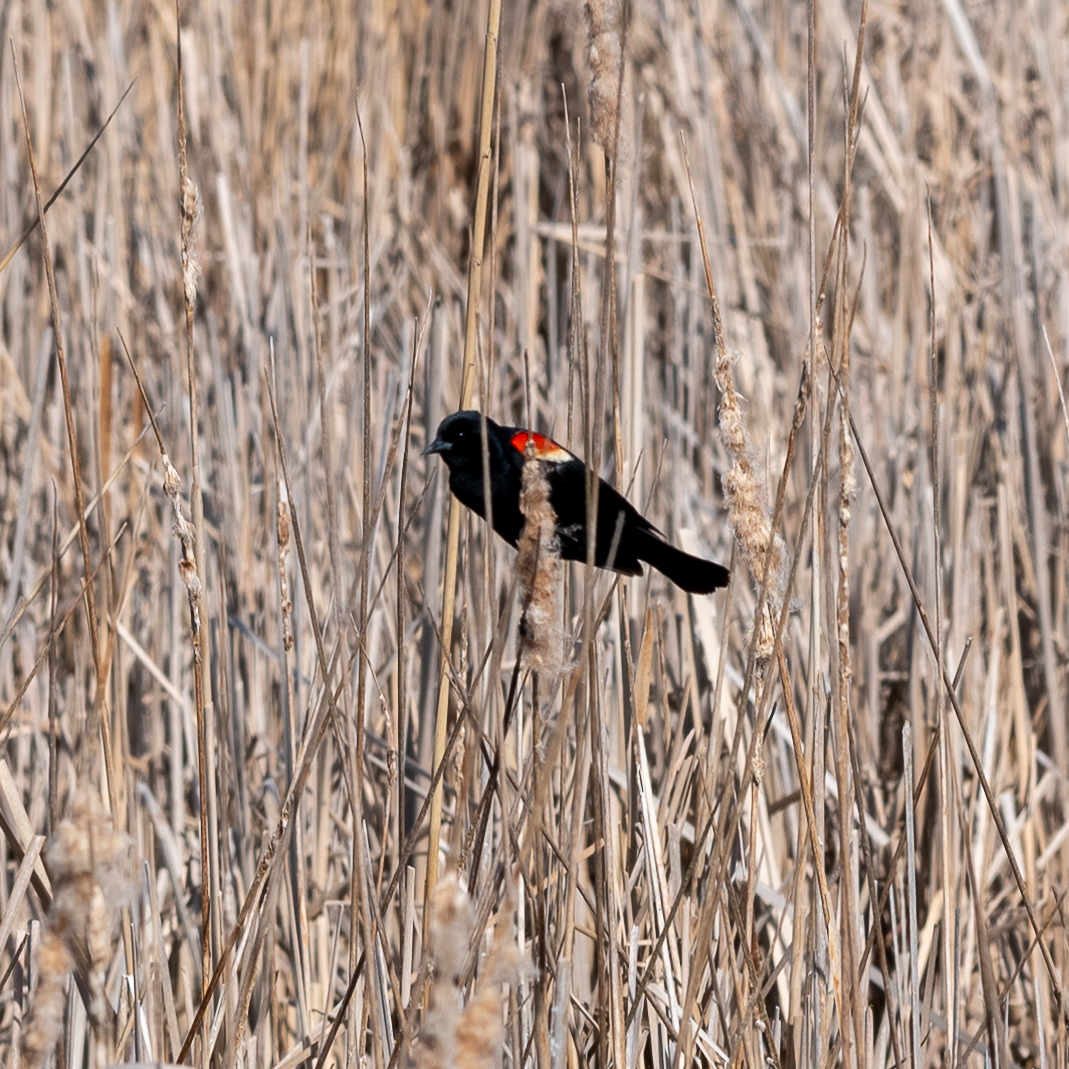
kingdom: Animalia
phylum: Chordata
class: Aves
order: Passeriformes
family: Icteridae
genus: Agelaius
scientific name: Agelaius phoeniceus
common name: Red-winged blackbird
